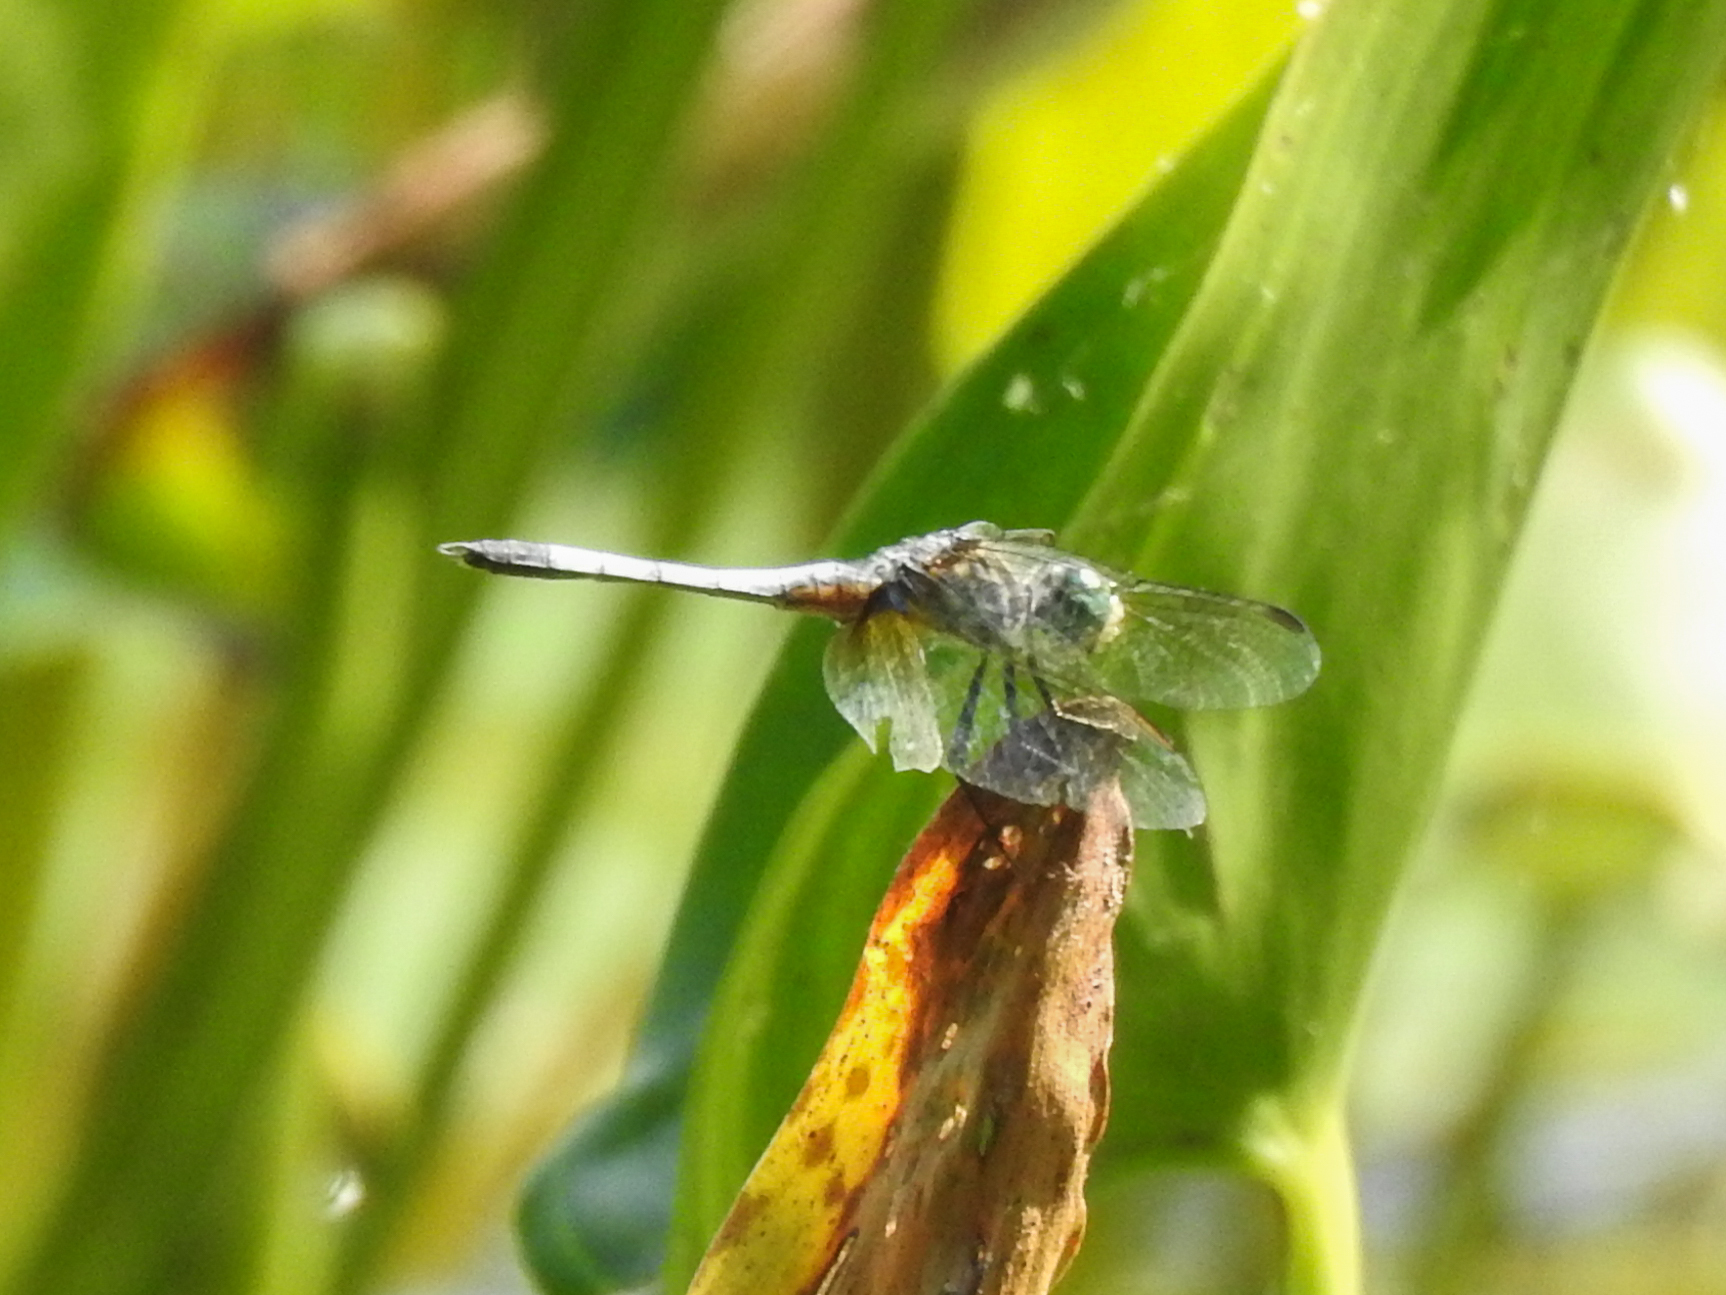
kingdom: Animalia
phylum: Arthropoda
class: Insecta
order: Odonata
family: Libellulidae
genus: Pachydiplax
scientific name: Pachydiplax longipennis
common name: Blue dasher
